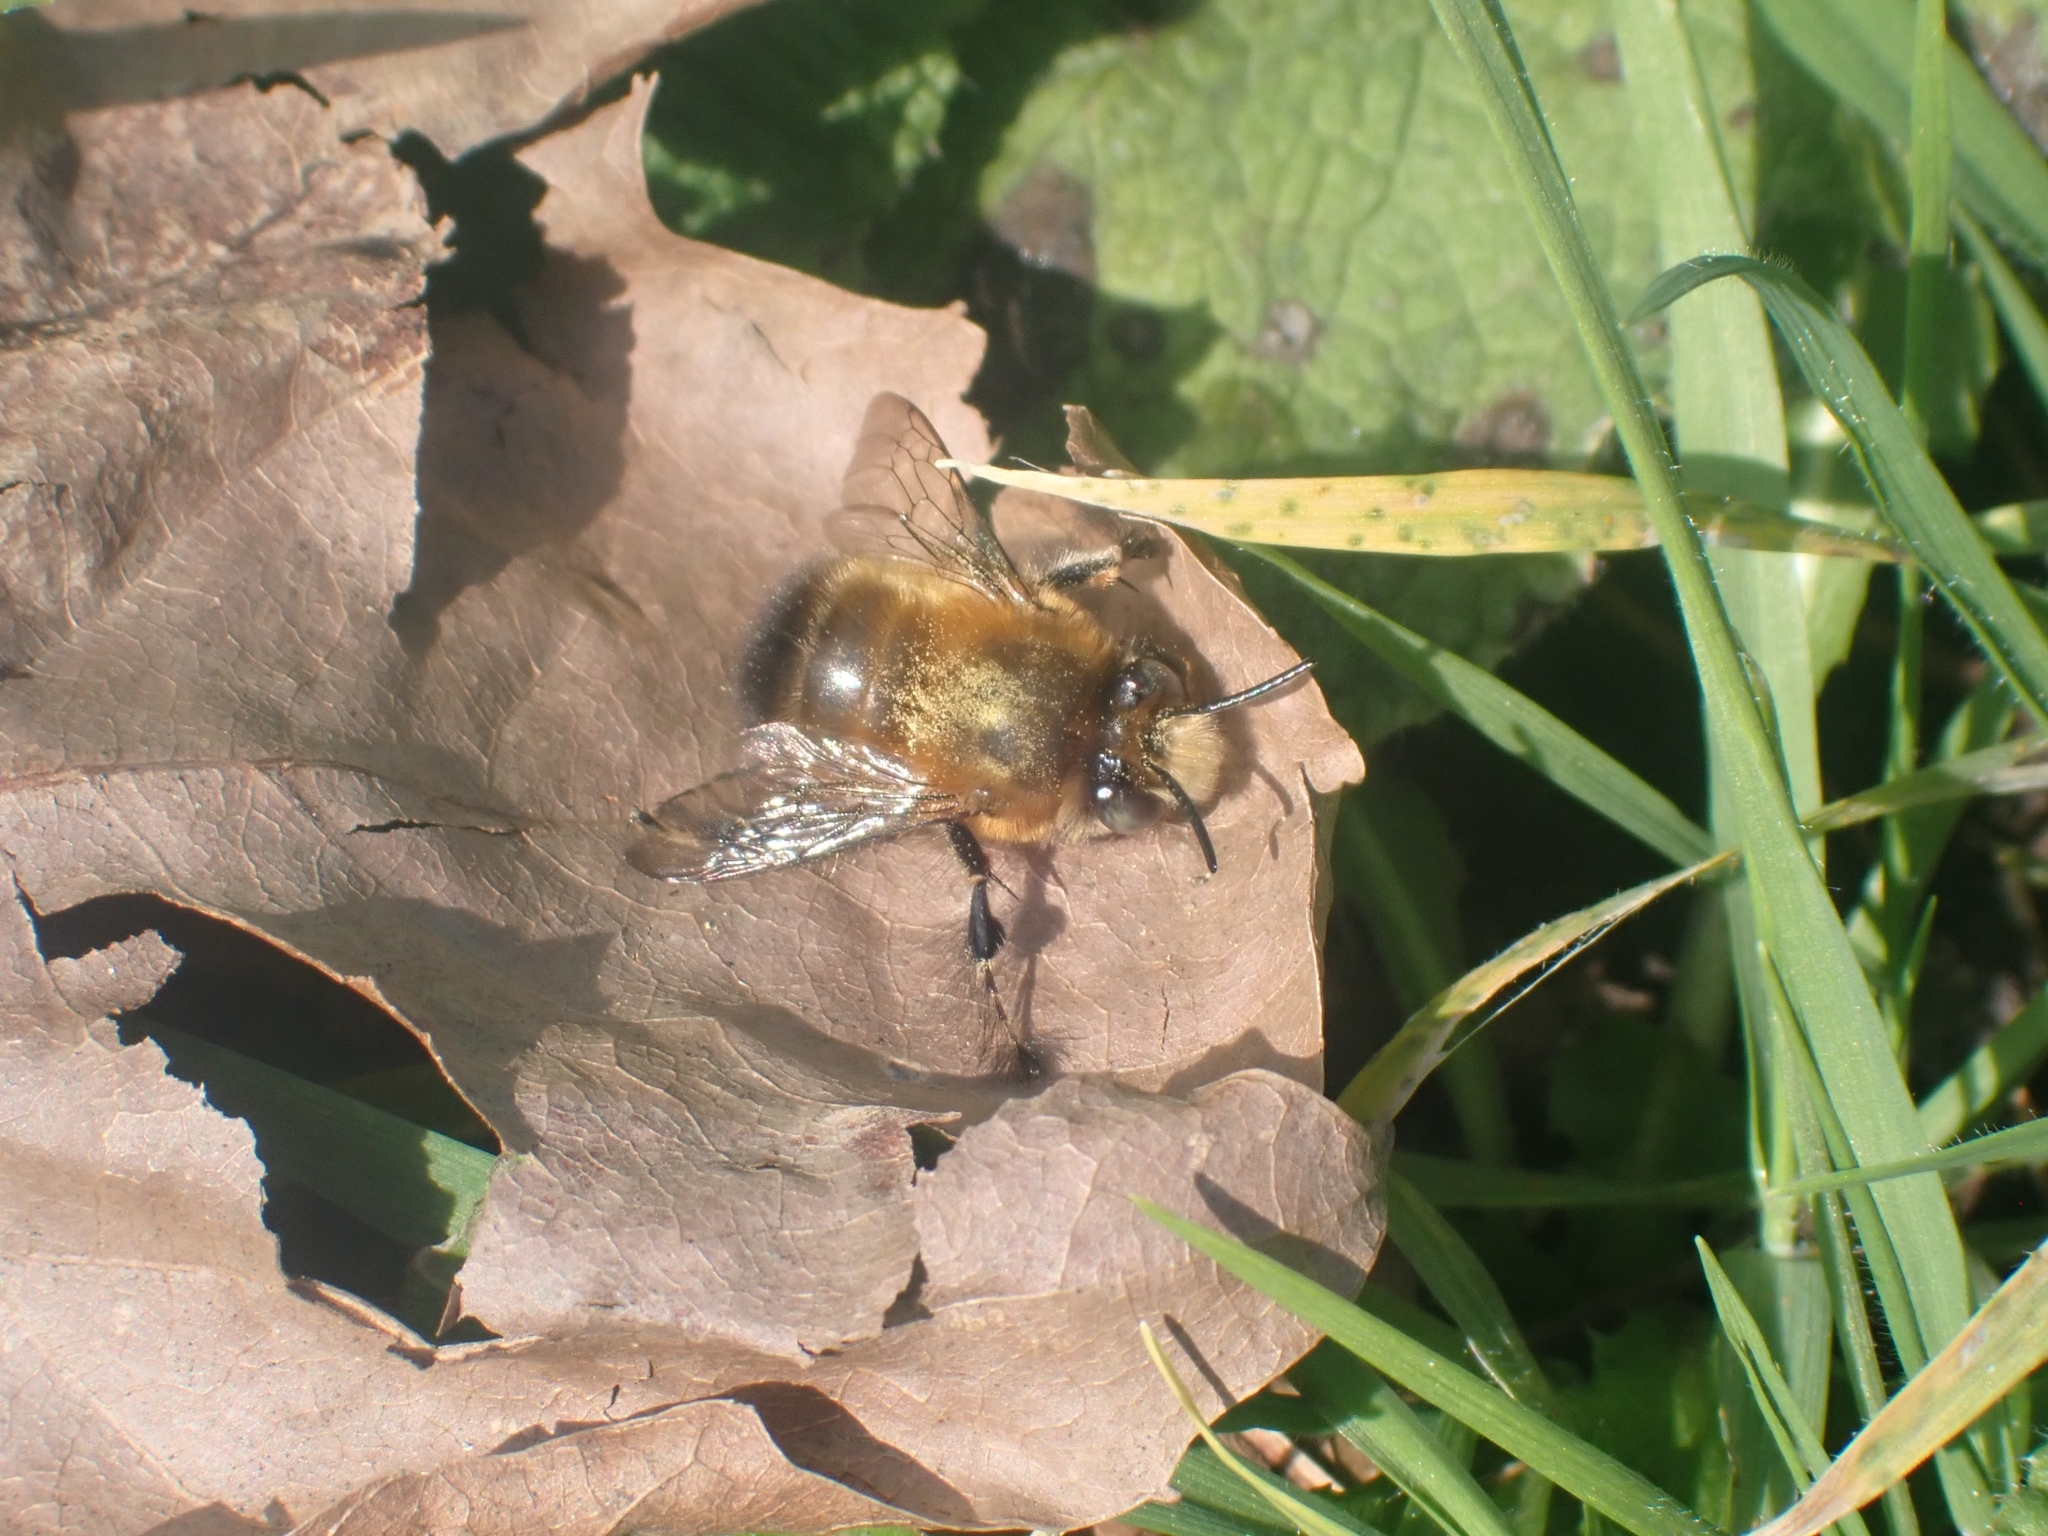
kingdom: Animalia
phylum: Arthropoda
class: Insecta
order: Hymenoptera
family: Apidae
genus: Anthophora
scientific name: Anthophora plumipes
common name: Hairy-footed flower bee
